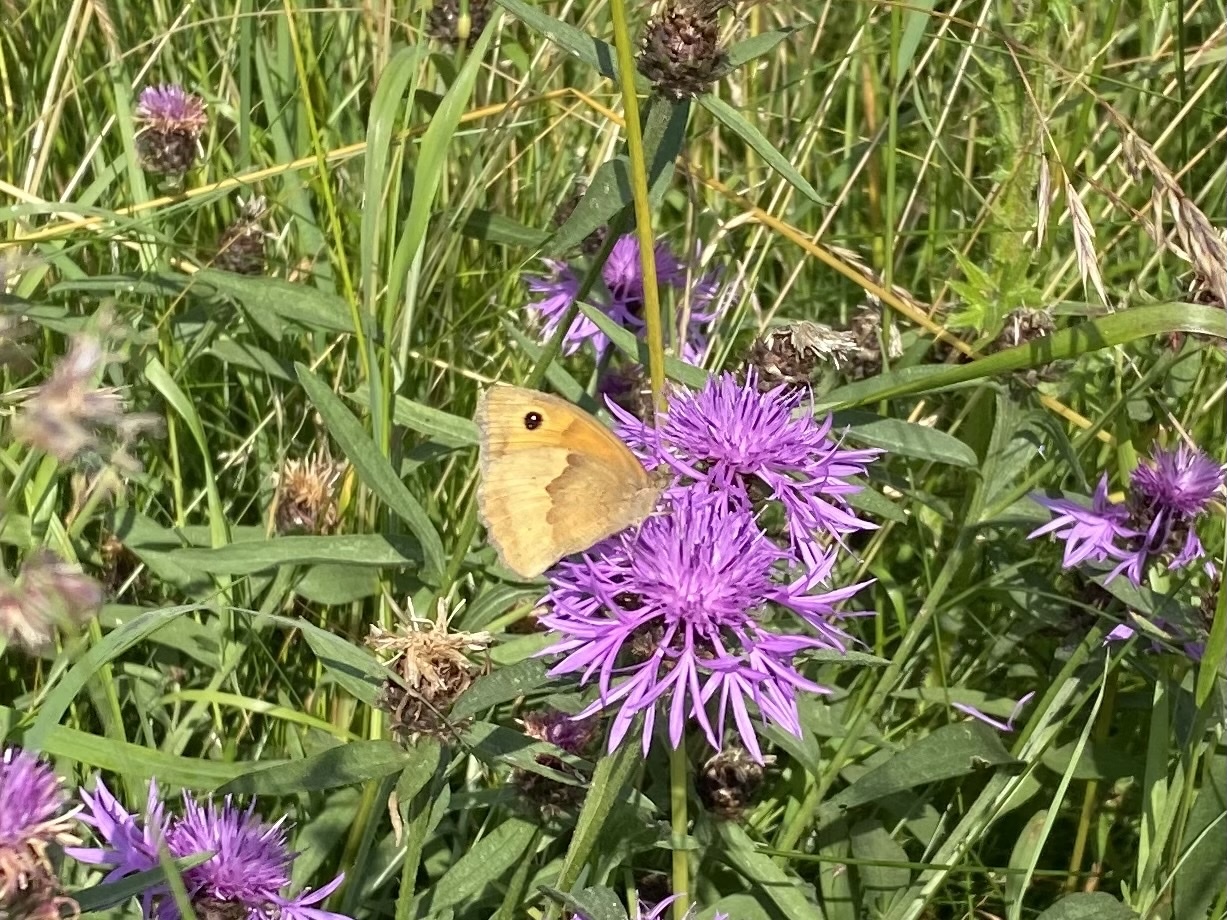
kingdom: Animalia
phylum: Arthropoda
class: Insecta
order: Lepidoptera
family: Nymphalidae
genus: Maniola
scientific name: Maniola jurtina
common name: Meadow brown
